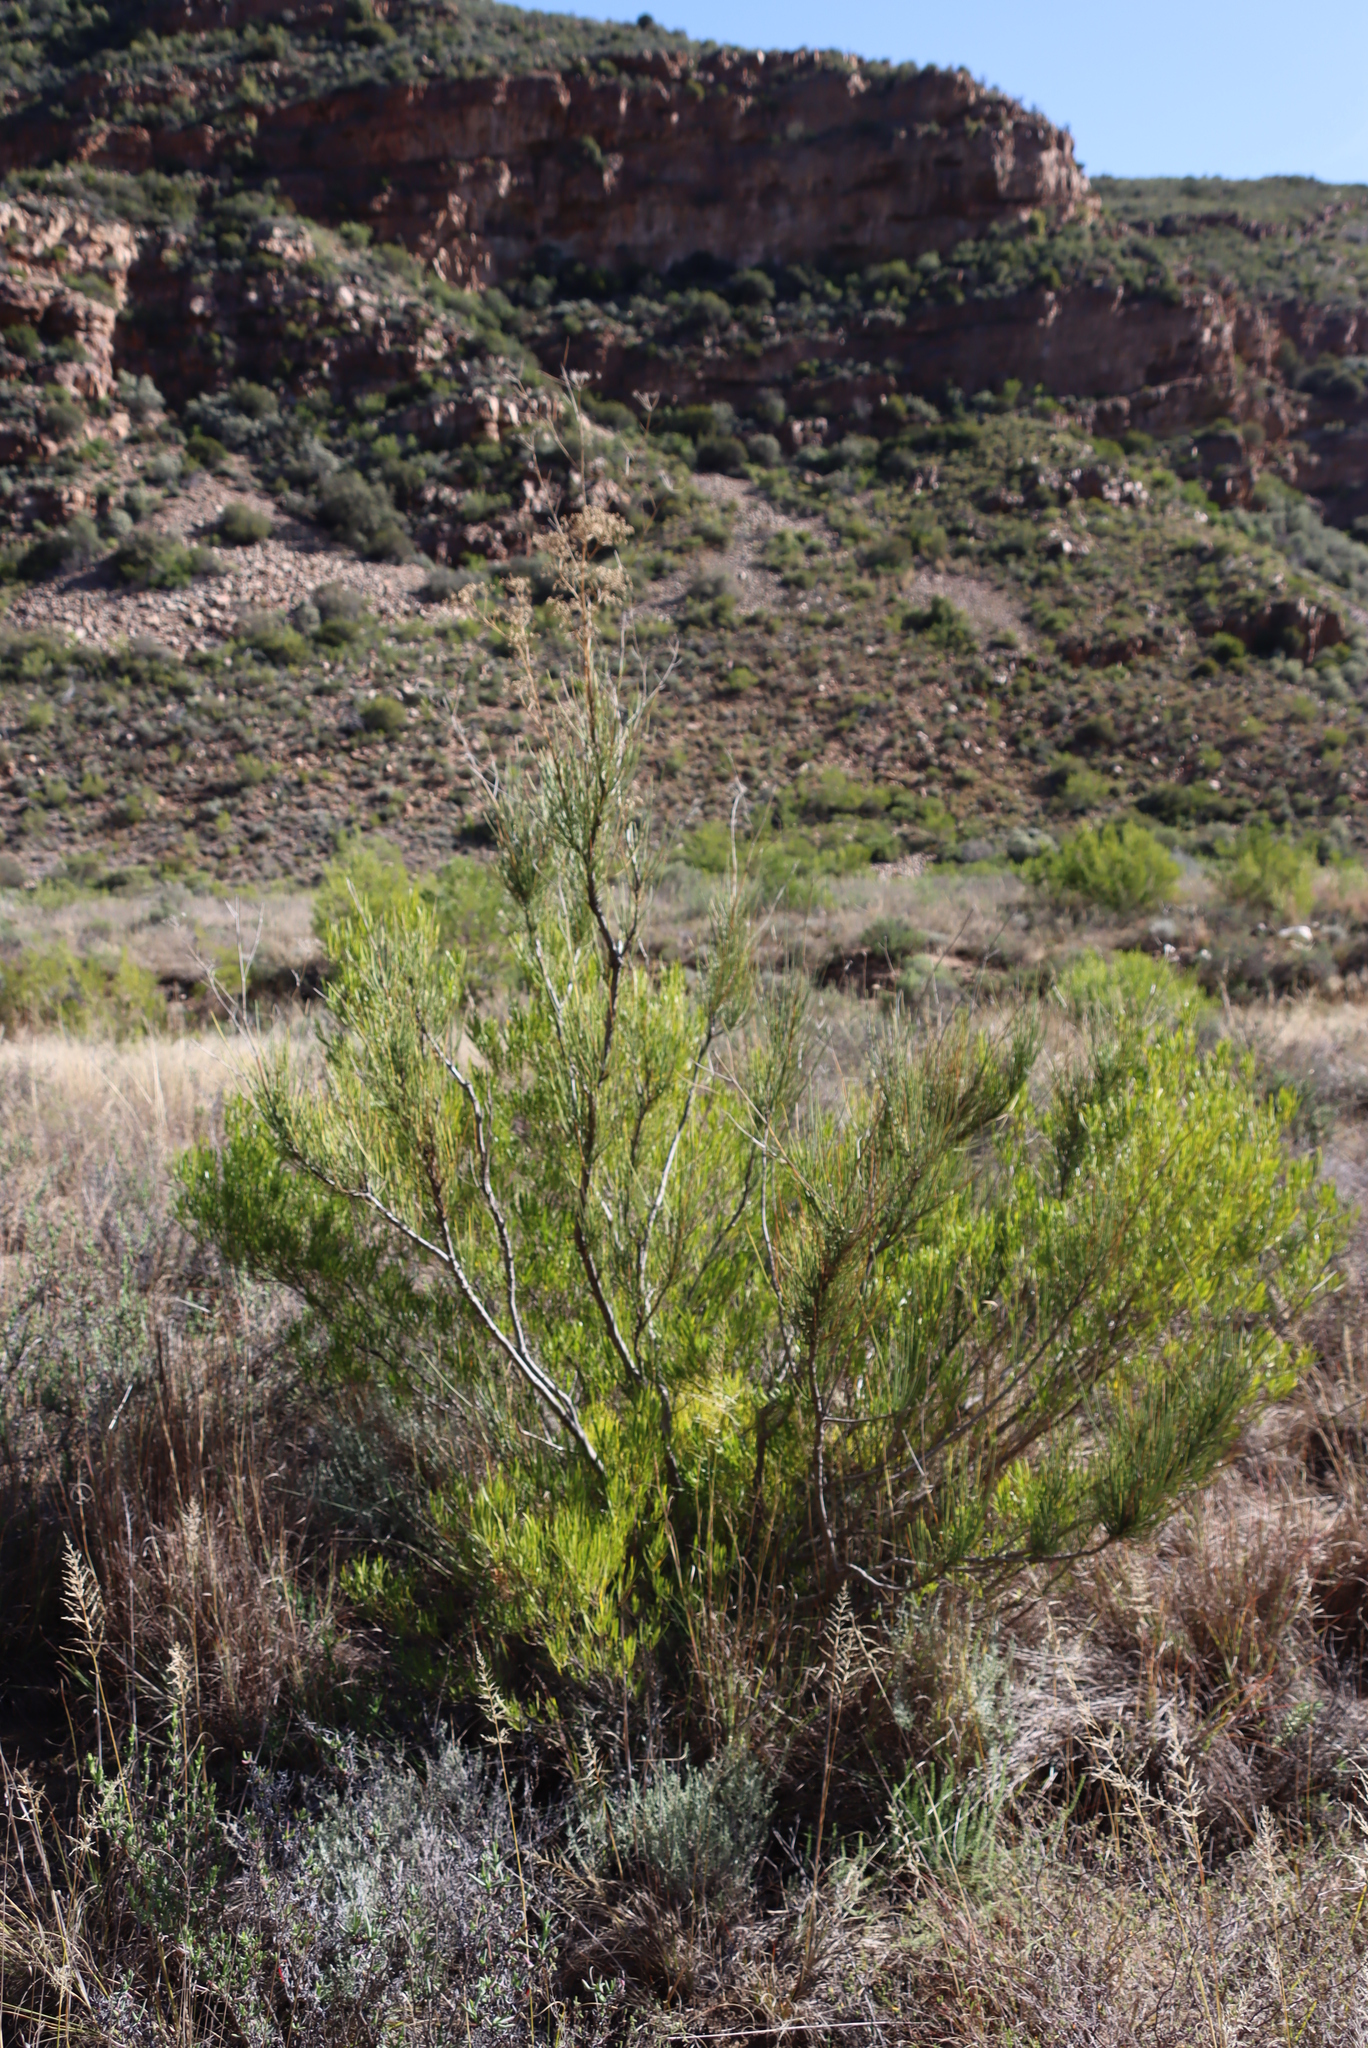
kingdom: Plantae
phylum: Tracheophyta
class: Magnoliopsida
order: Sapindales
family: Sapindaceae
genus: Dodonaea
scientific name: Dodonaea viscosa
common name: Hopbush
